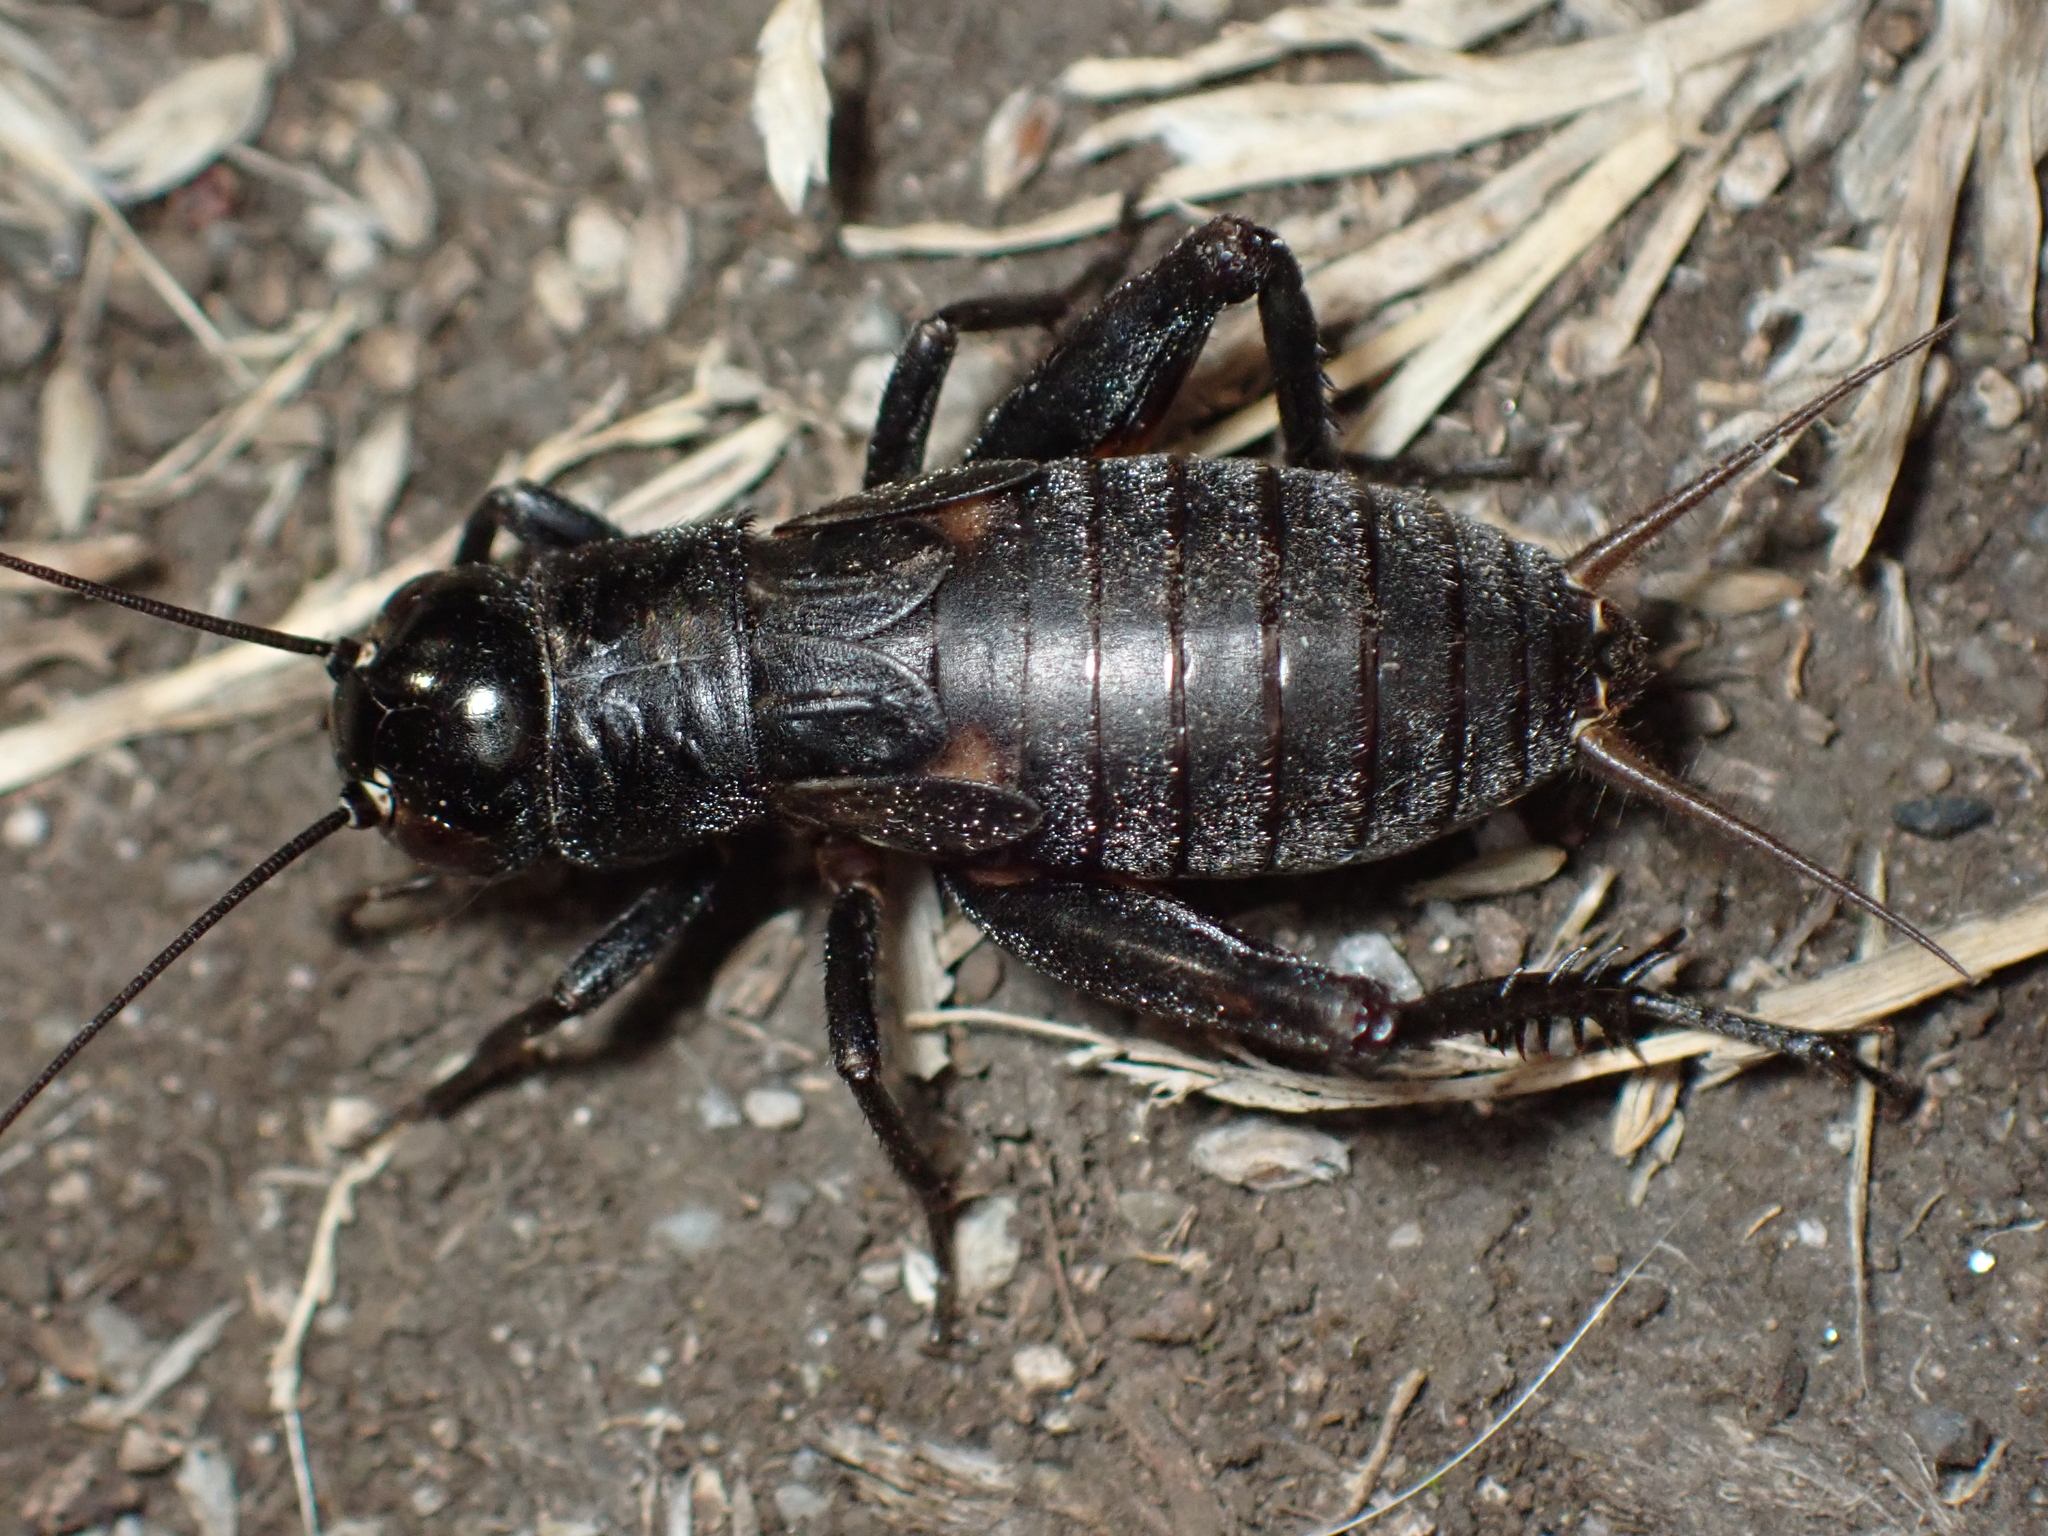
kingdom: Animalia
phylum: Arthropoda
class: Insecta
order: Orthoptera
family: Gryllidae
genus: Gryllus
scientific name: Gryllus pennsylvanicus
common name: Fall field cricket
